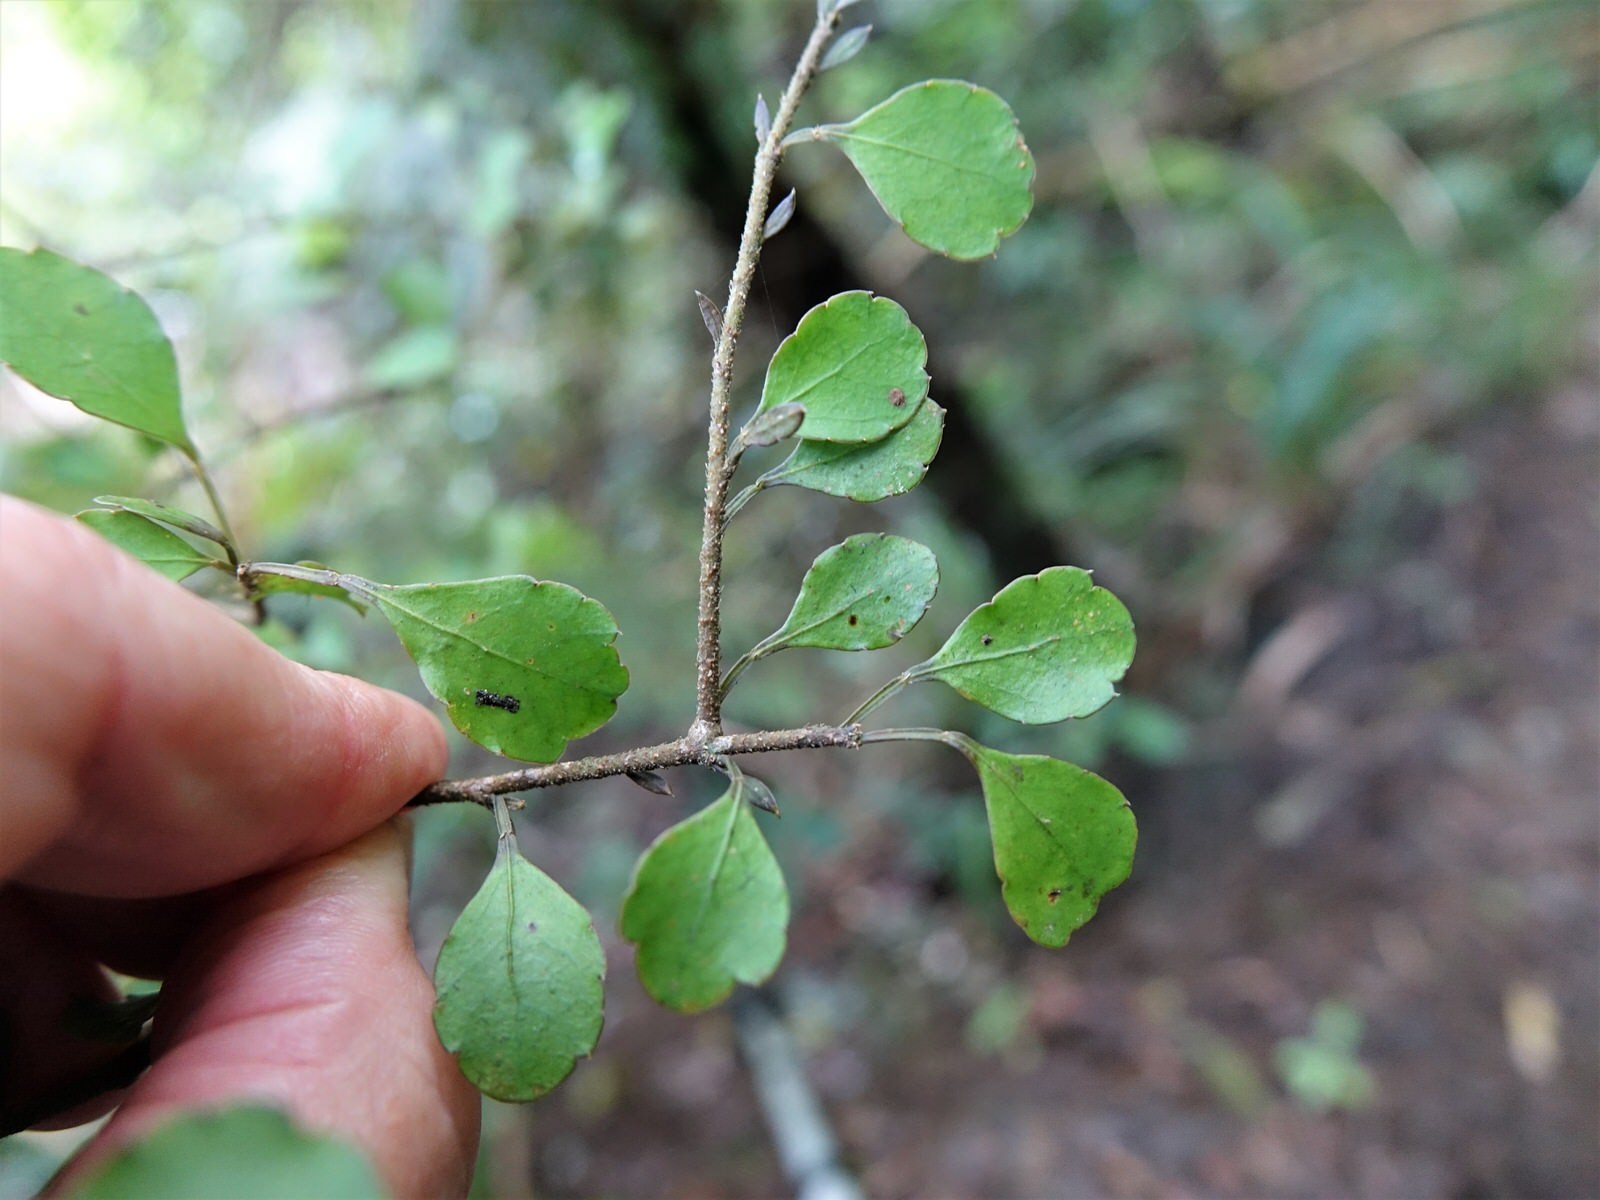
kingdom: Plantae
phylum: Tracheophyta
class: Magnoliopsida
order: Apiales
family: Araliaceae
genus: Raukaua
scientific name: Raukaua anomalus
